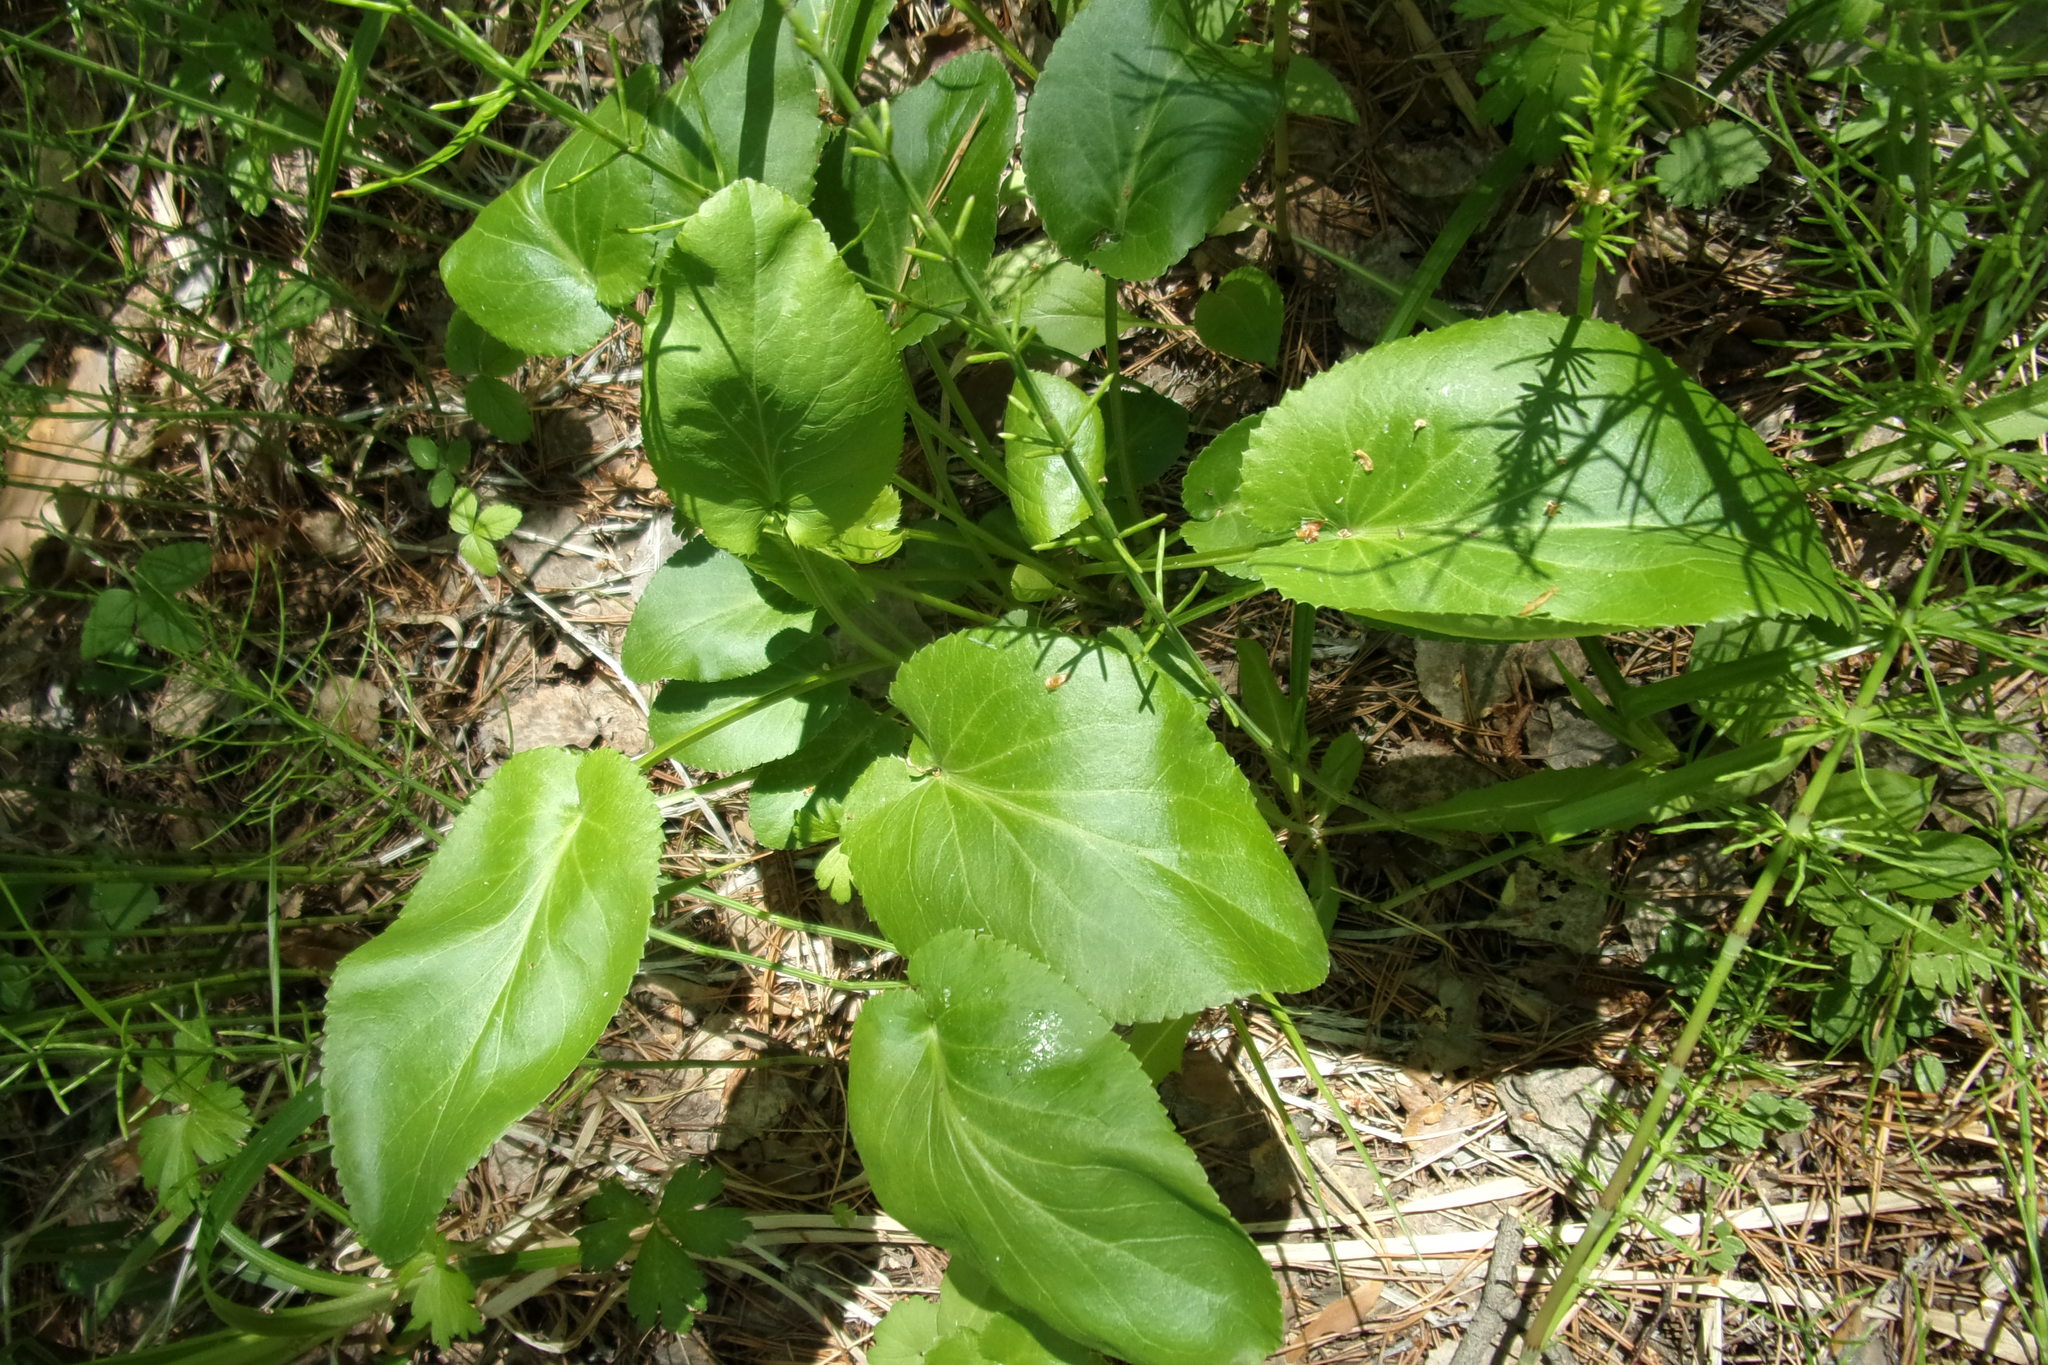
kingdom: Plantae
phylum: Tracheophyta
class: Magnoliopsida
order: Apiales
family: Apiaceae
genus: Eryngium
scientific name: Eryngium planum
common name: Blue eryngo
